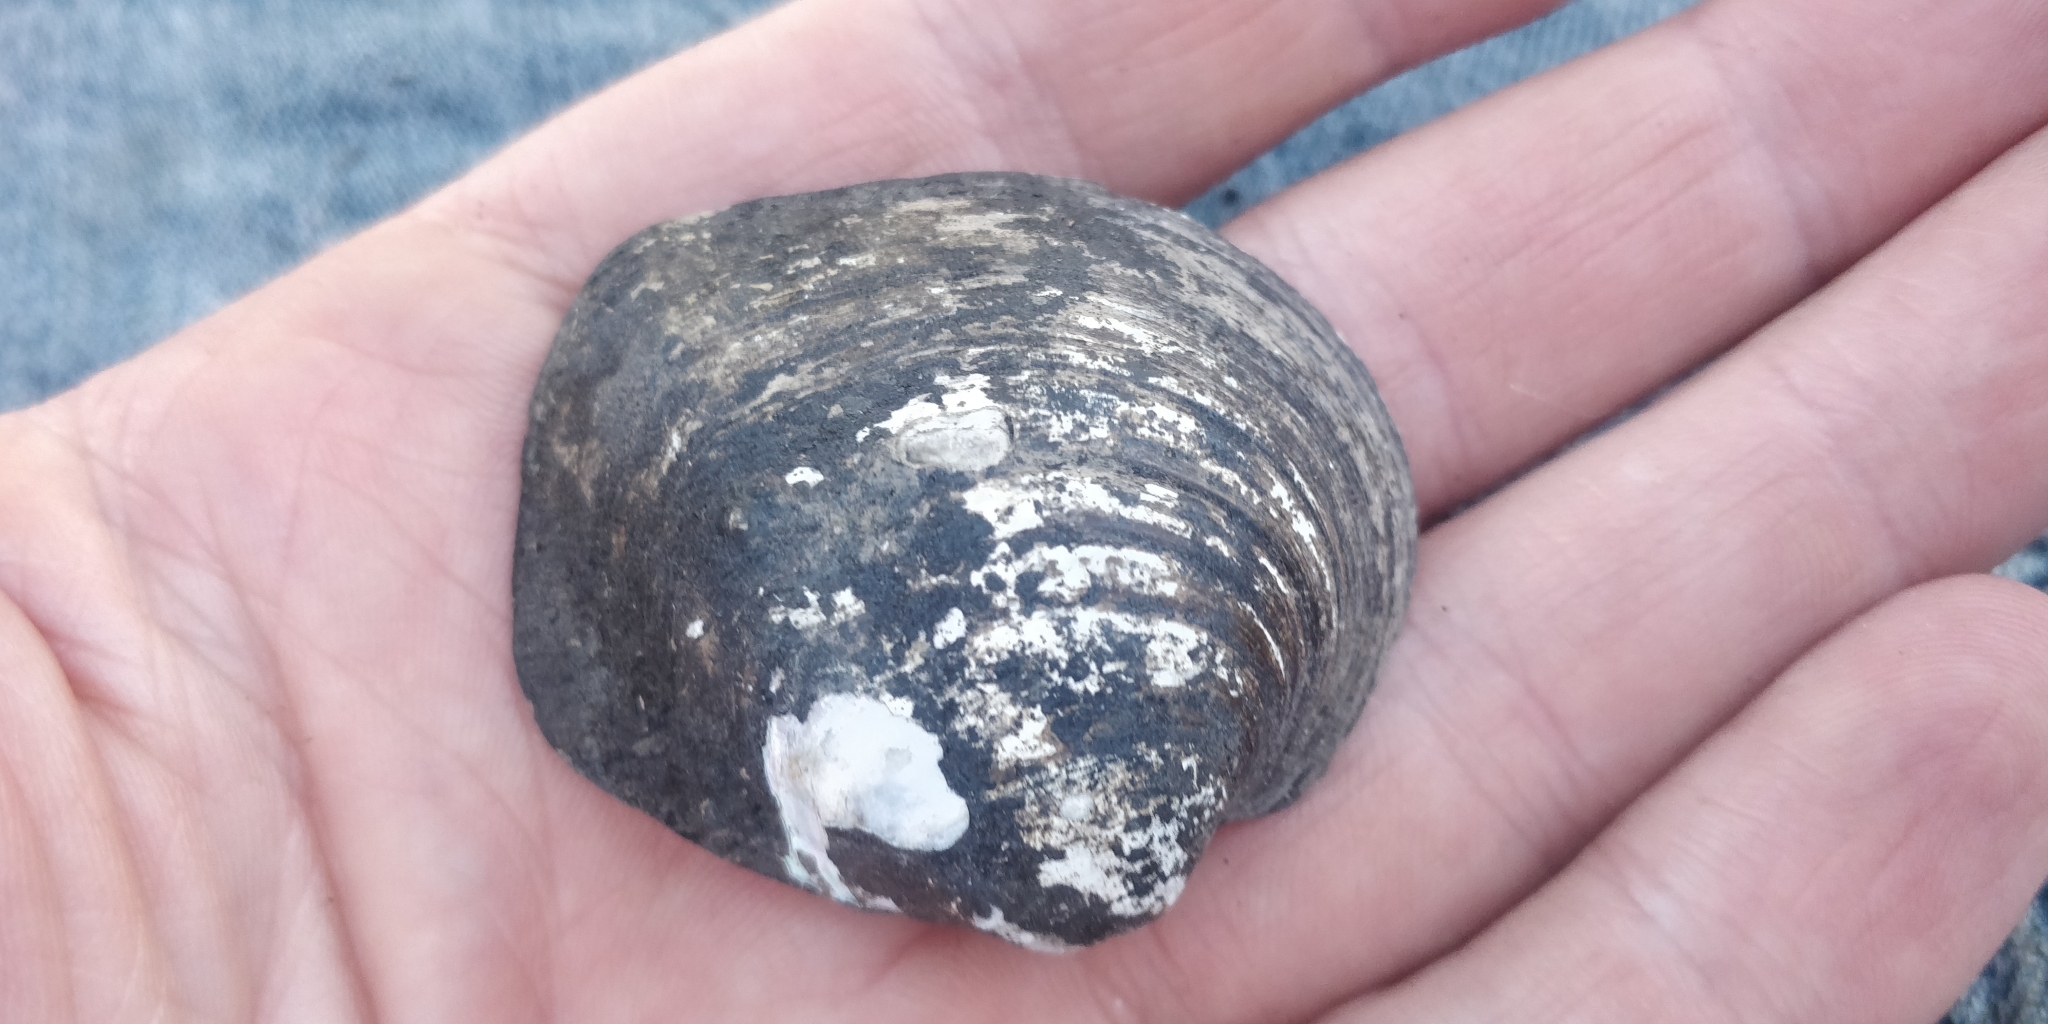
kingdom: Animalia
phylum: Mollusca
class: Bivalvia
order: Unionida
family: Unionidae
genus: Cyclonaias
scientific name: Cyclonaias pustulosa
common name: Pimpleback
